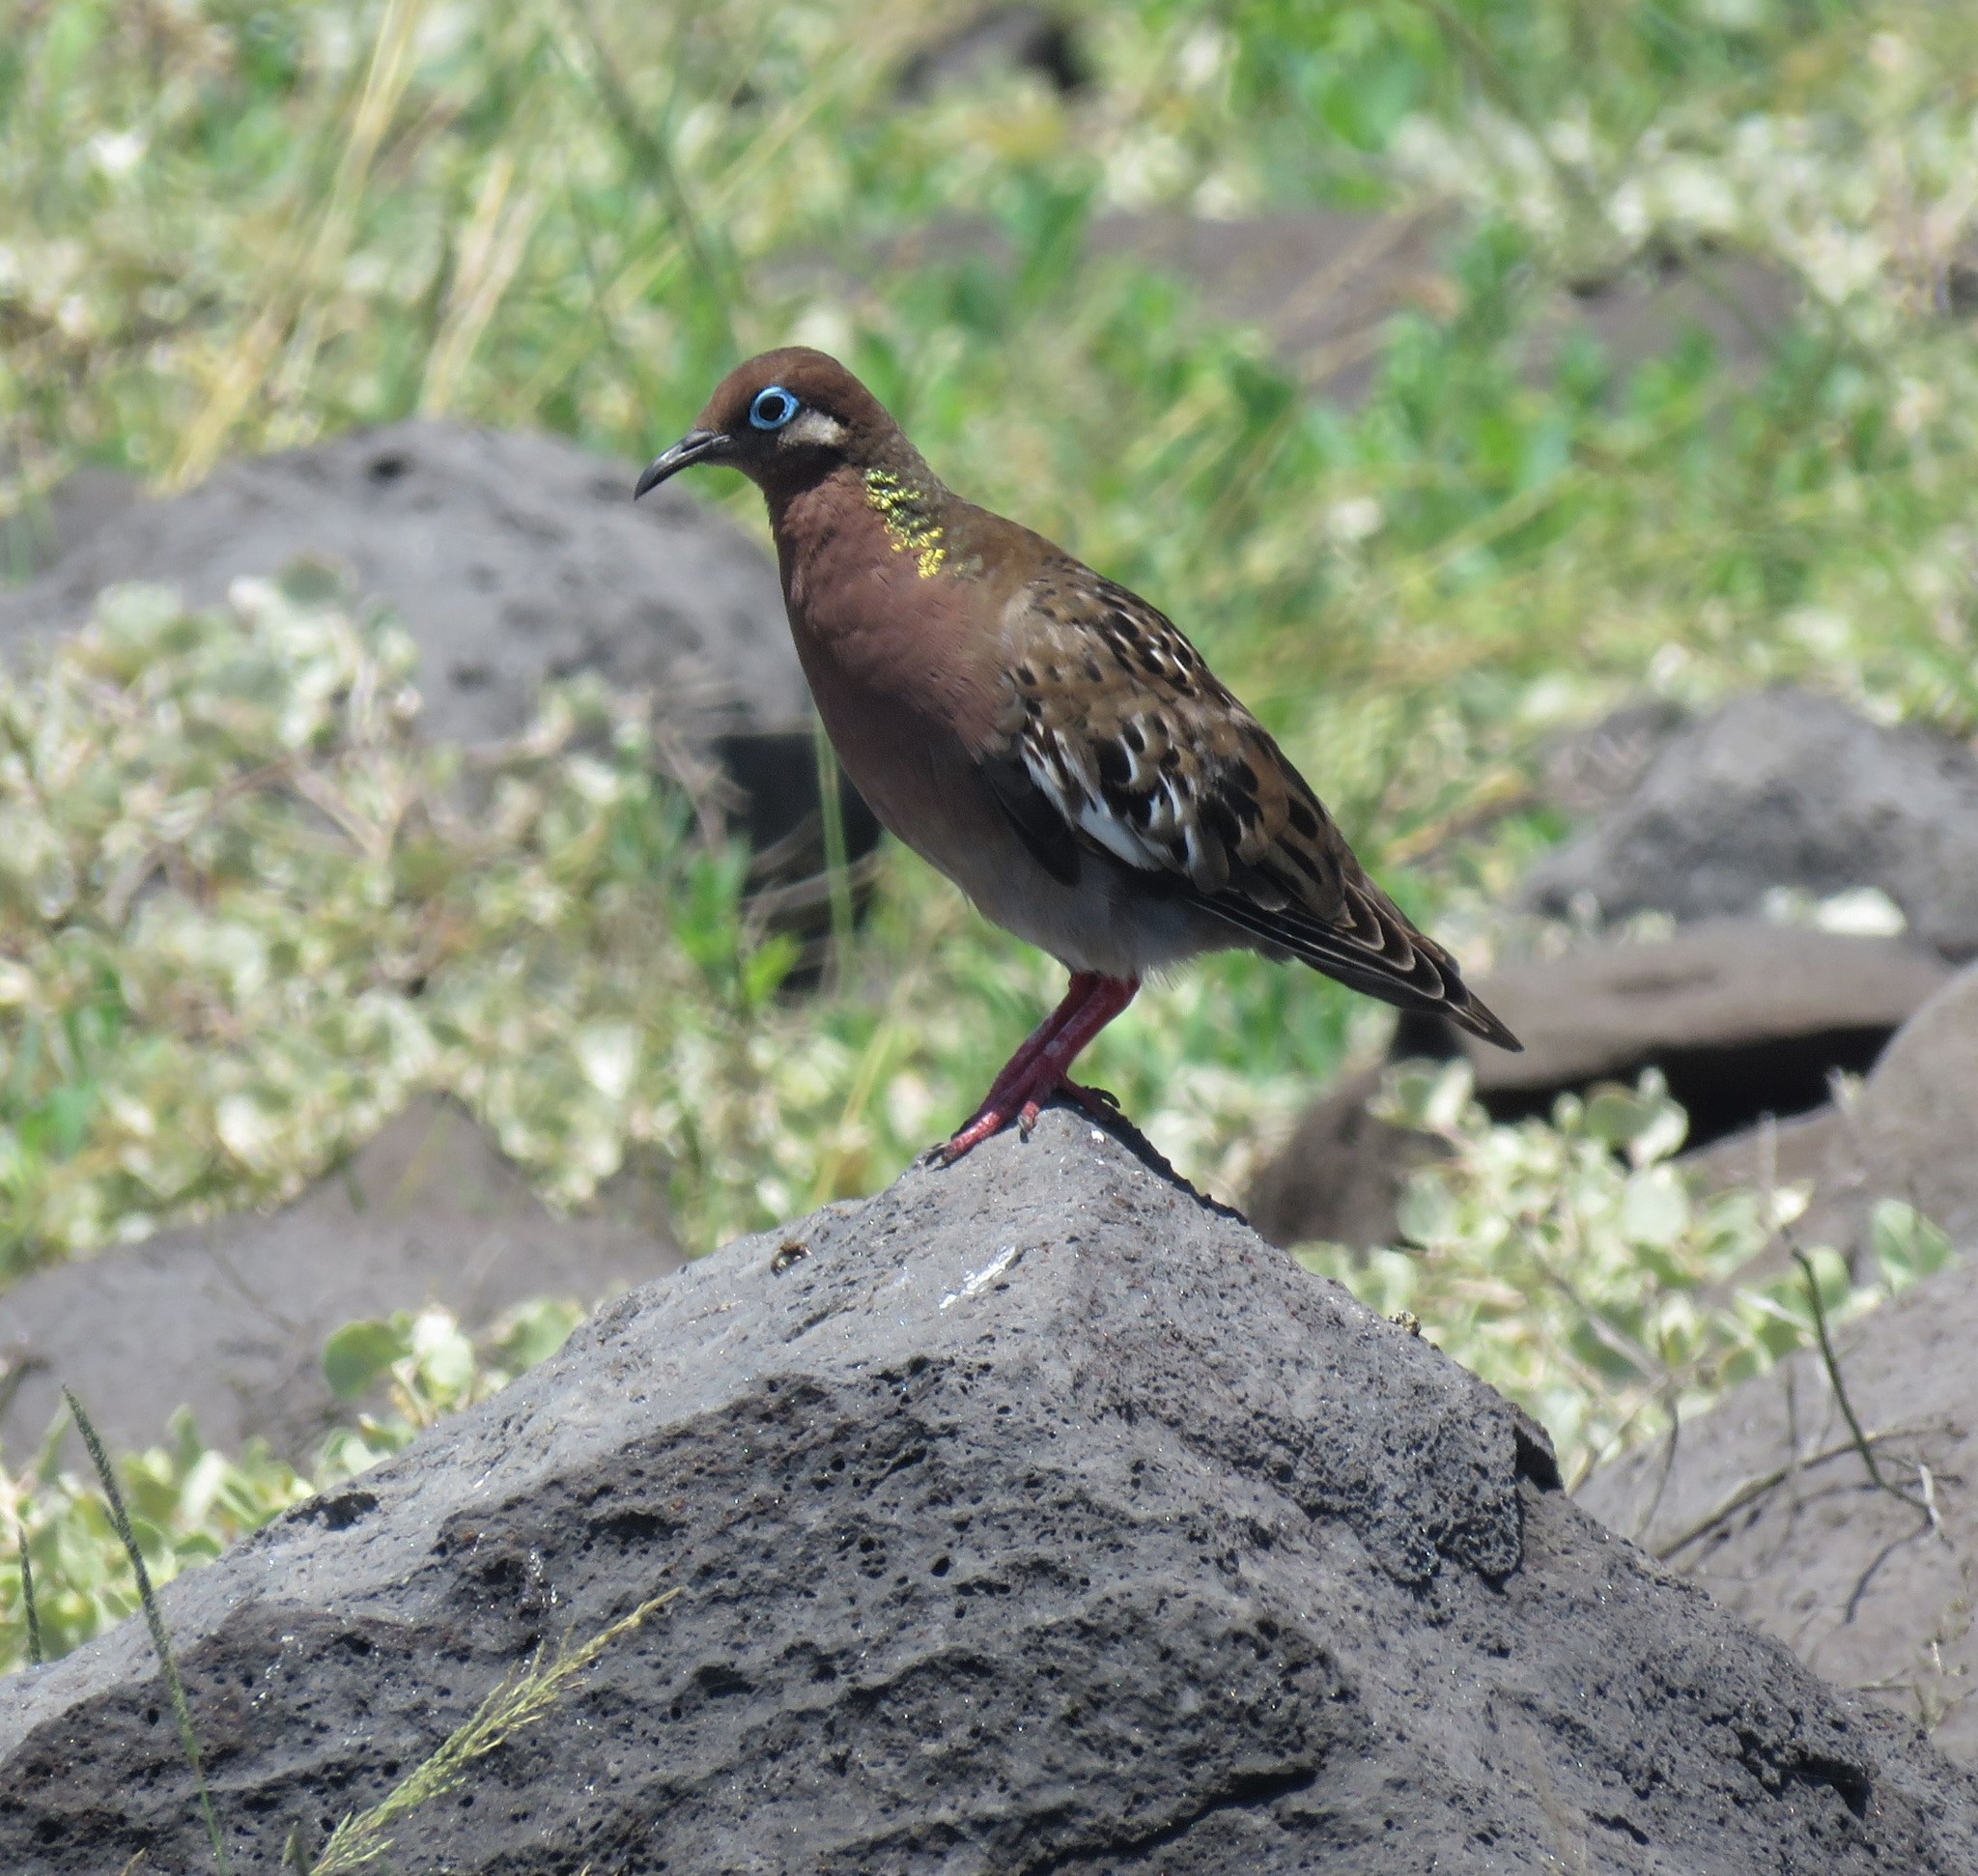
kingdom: Animalia
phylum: Chordata
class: Aves
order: Columbiformes
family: Columbidae
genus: Zenaida
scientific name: Zenaida galapagoensis
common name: Galapagos dove
